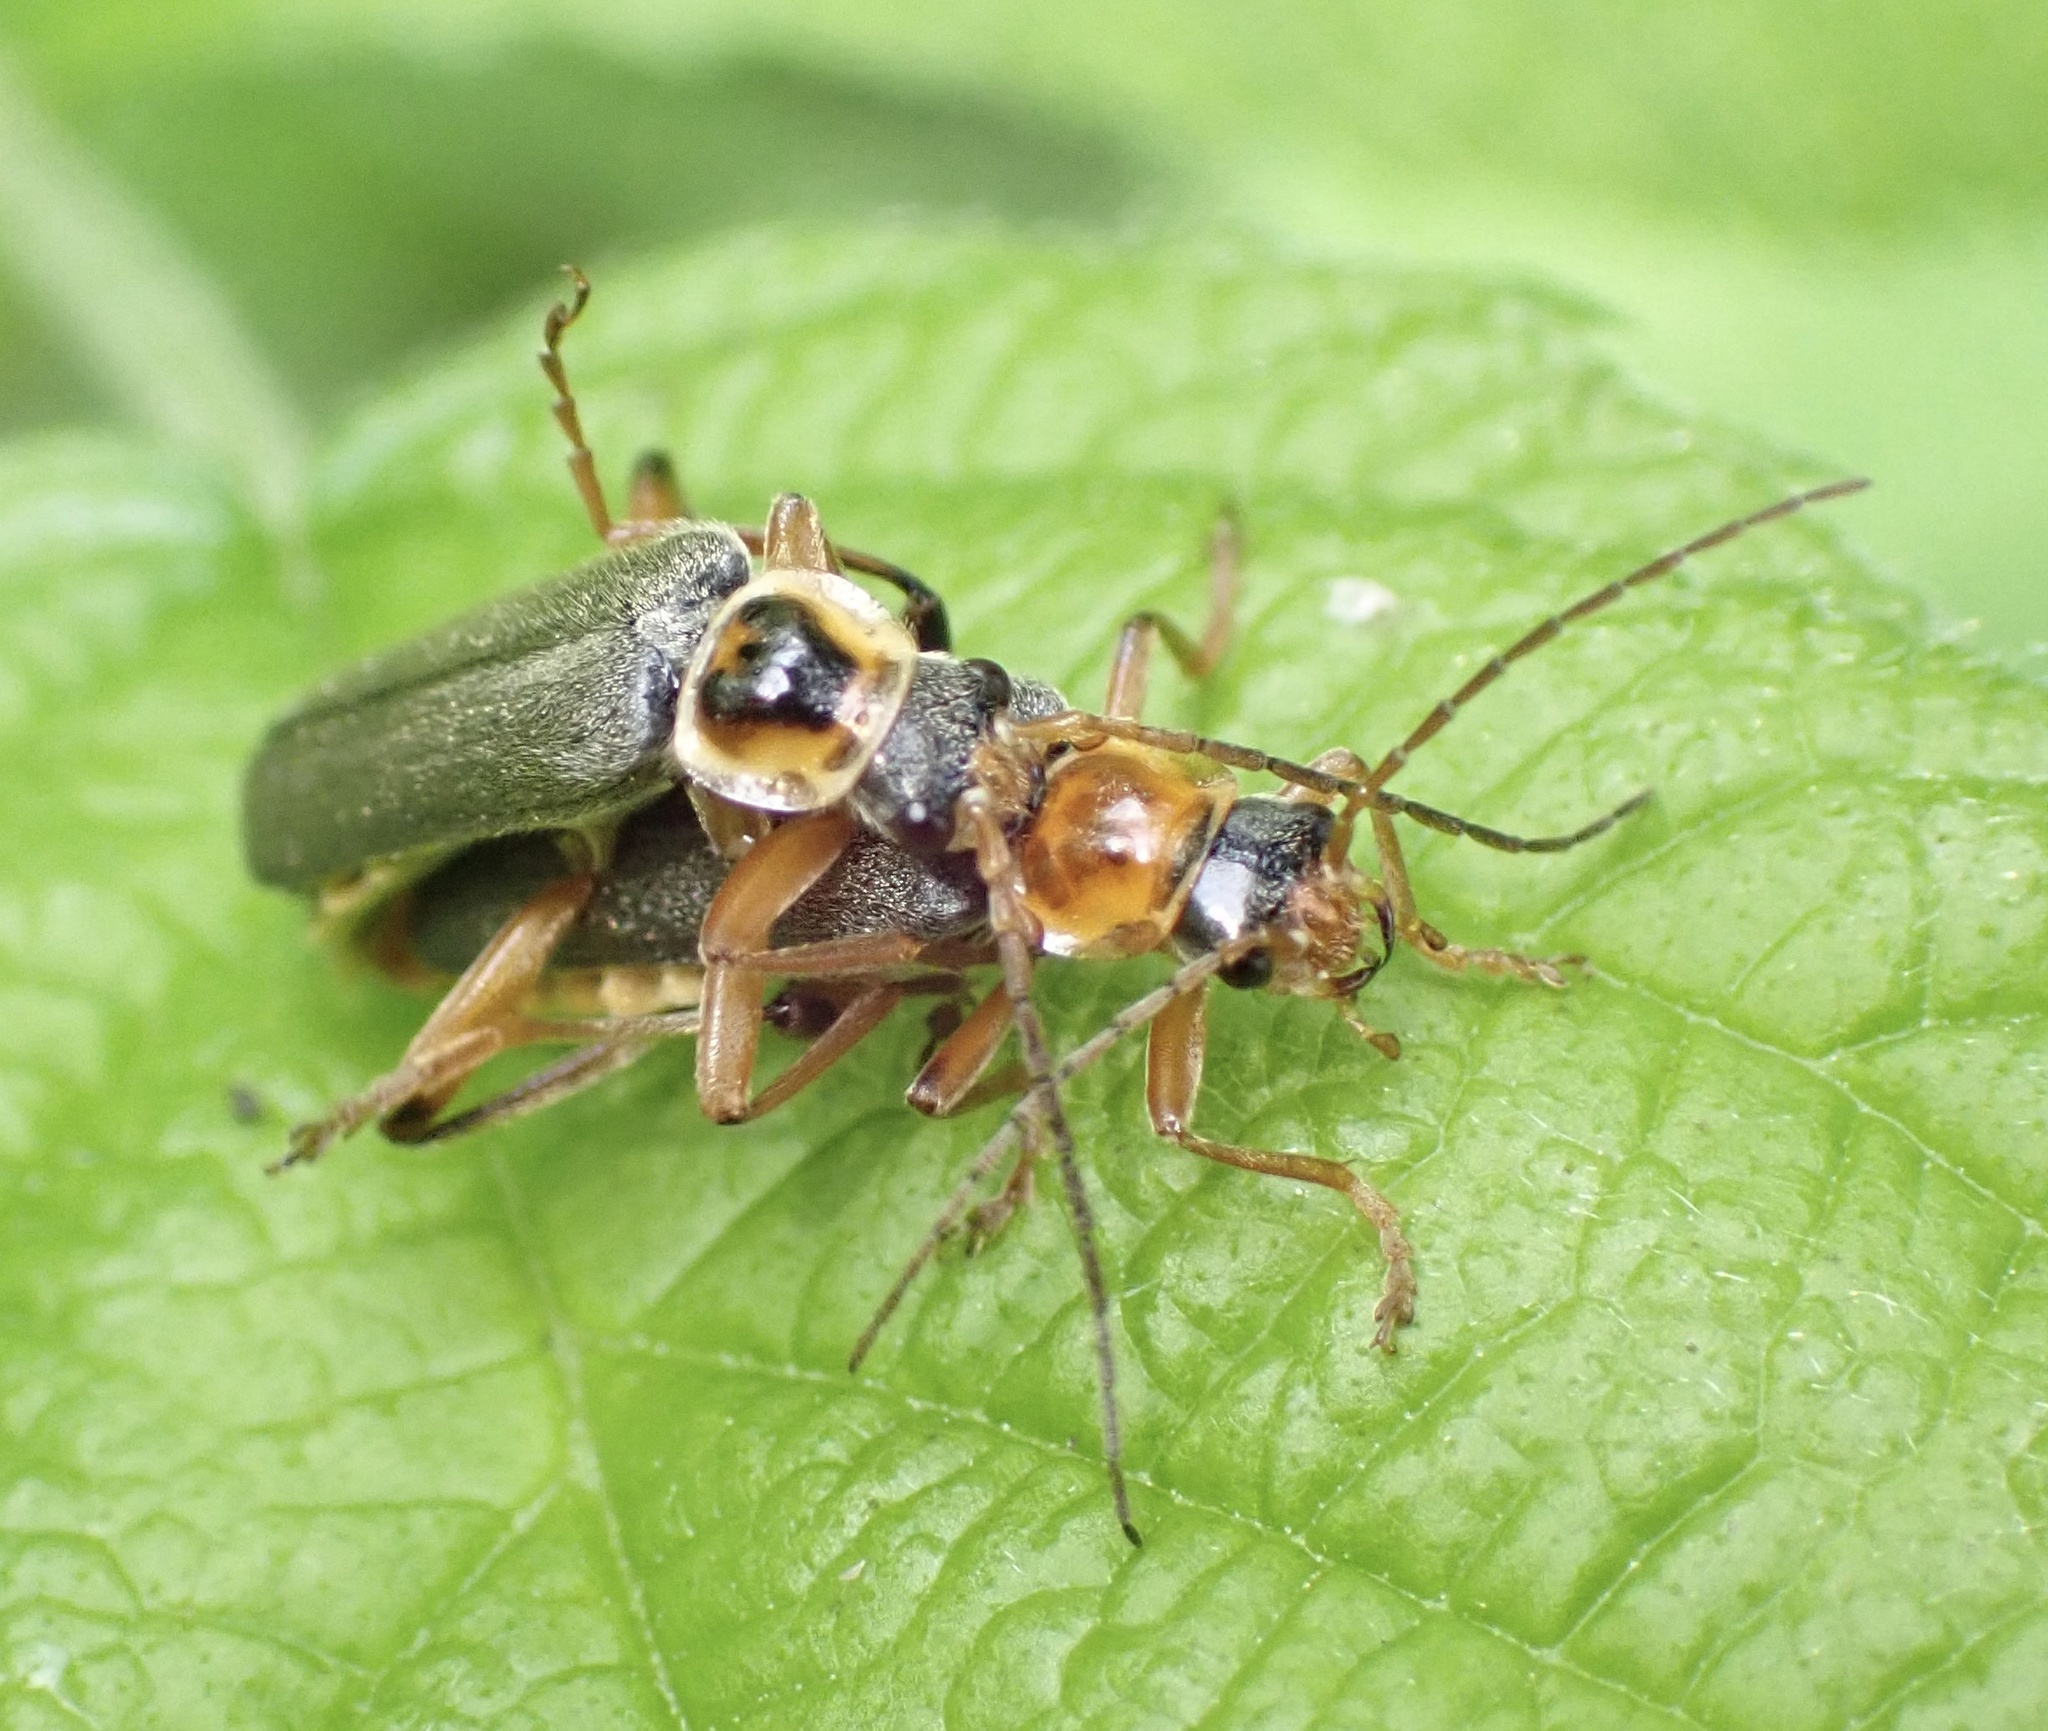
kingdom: Animalia
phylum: Arthropoda
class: Insecta
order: Coleoptera
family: Cantharidae
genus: Cantharis
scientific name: Cantharis nigricans
